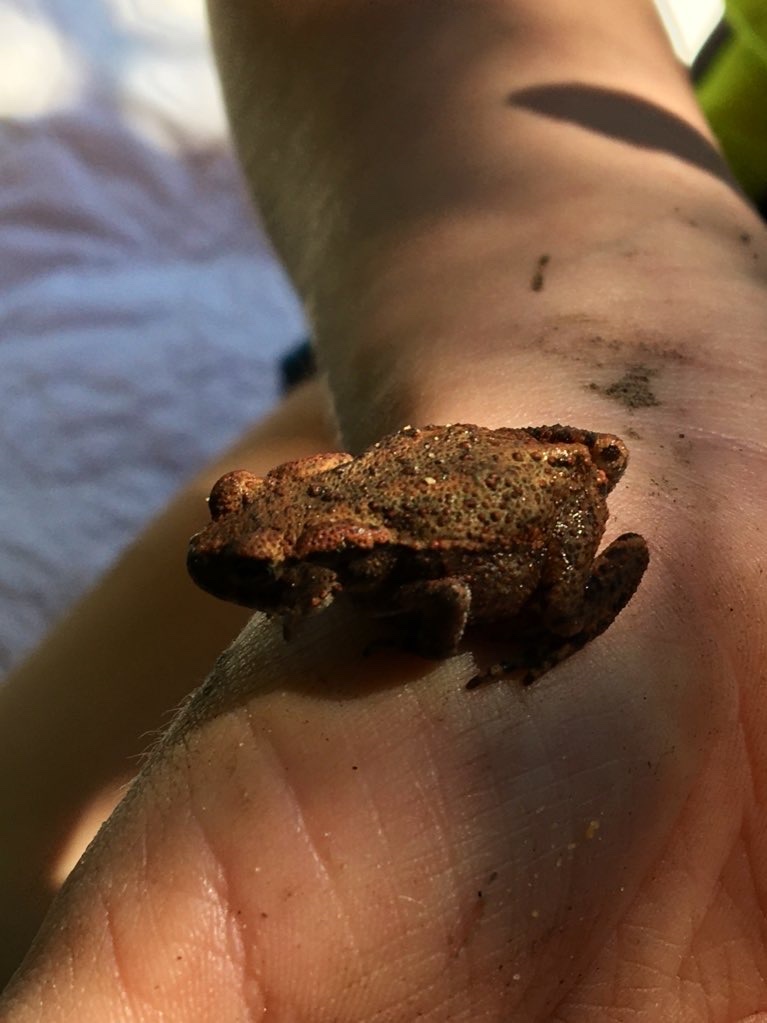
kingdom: Animalia
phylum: Chordata
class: Amphibia
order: Anura
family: Bufonidae
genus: Bufo
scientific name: Bufo bufo
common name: Common toad
